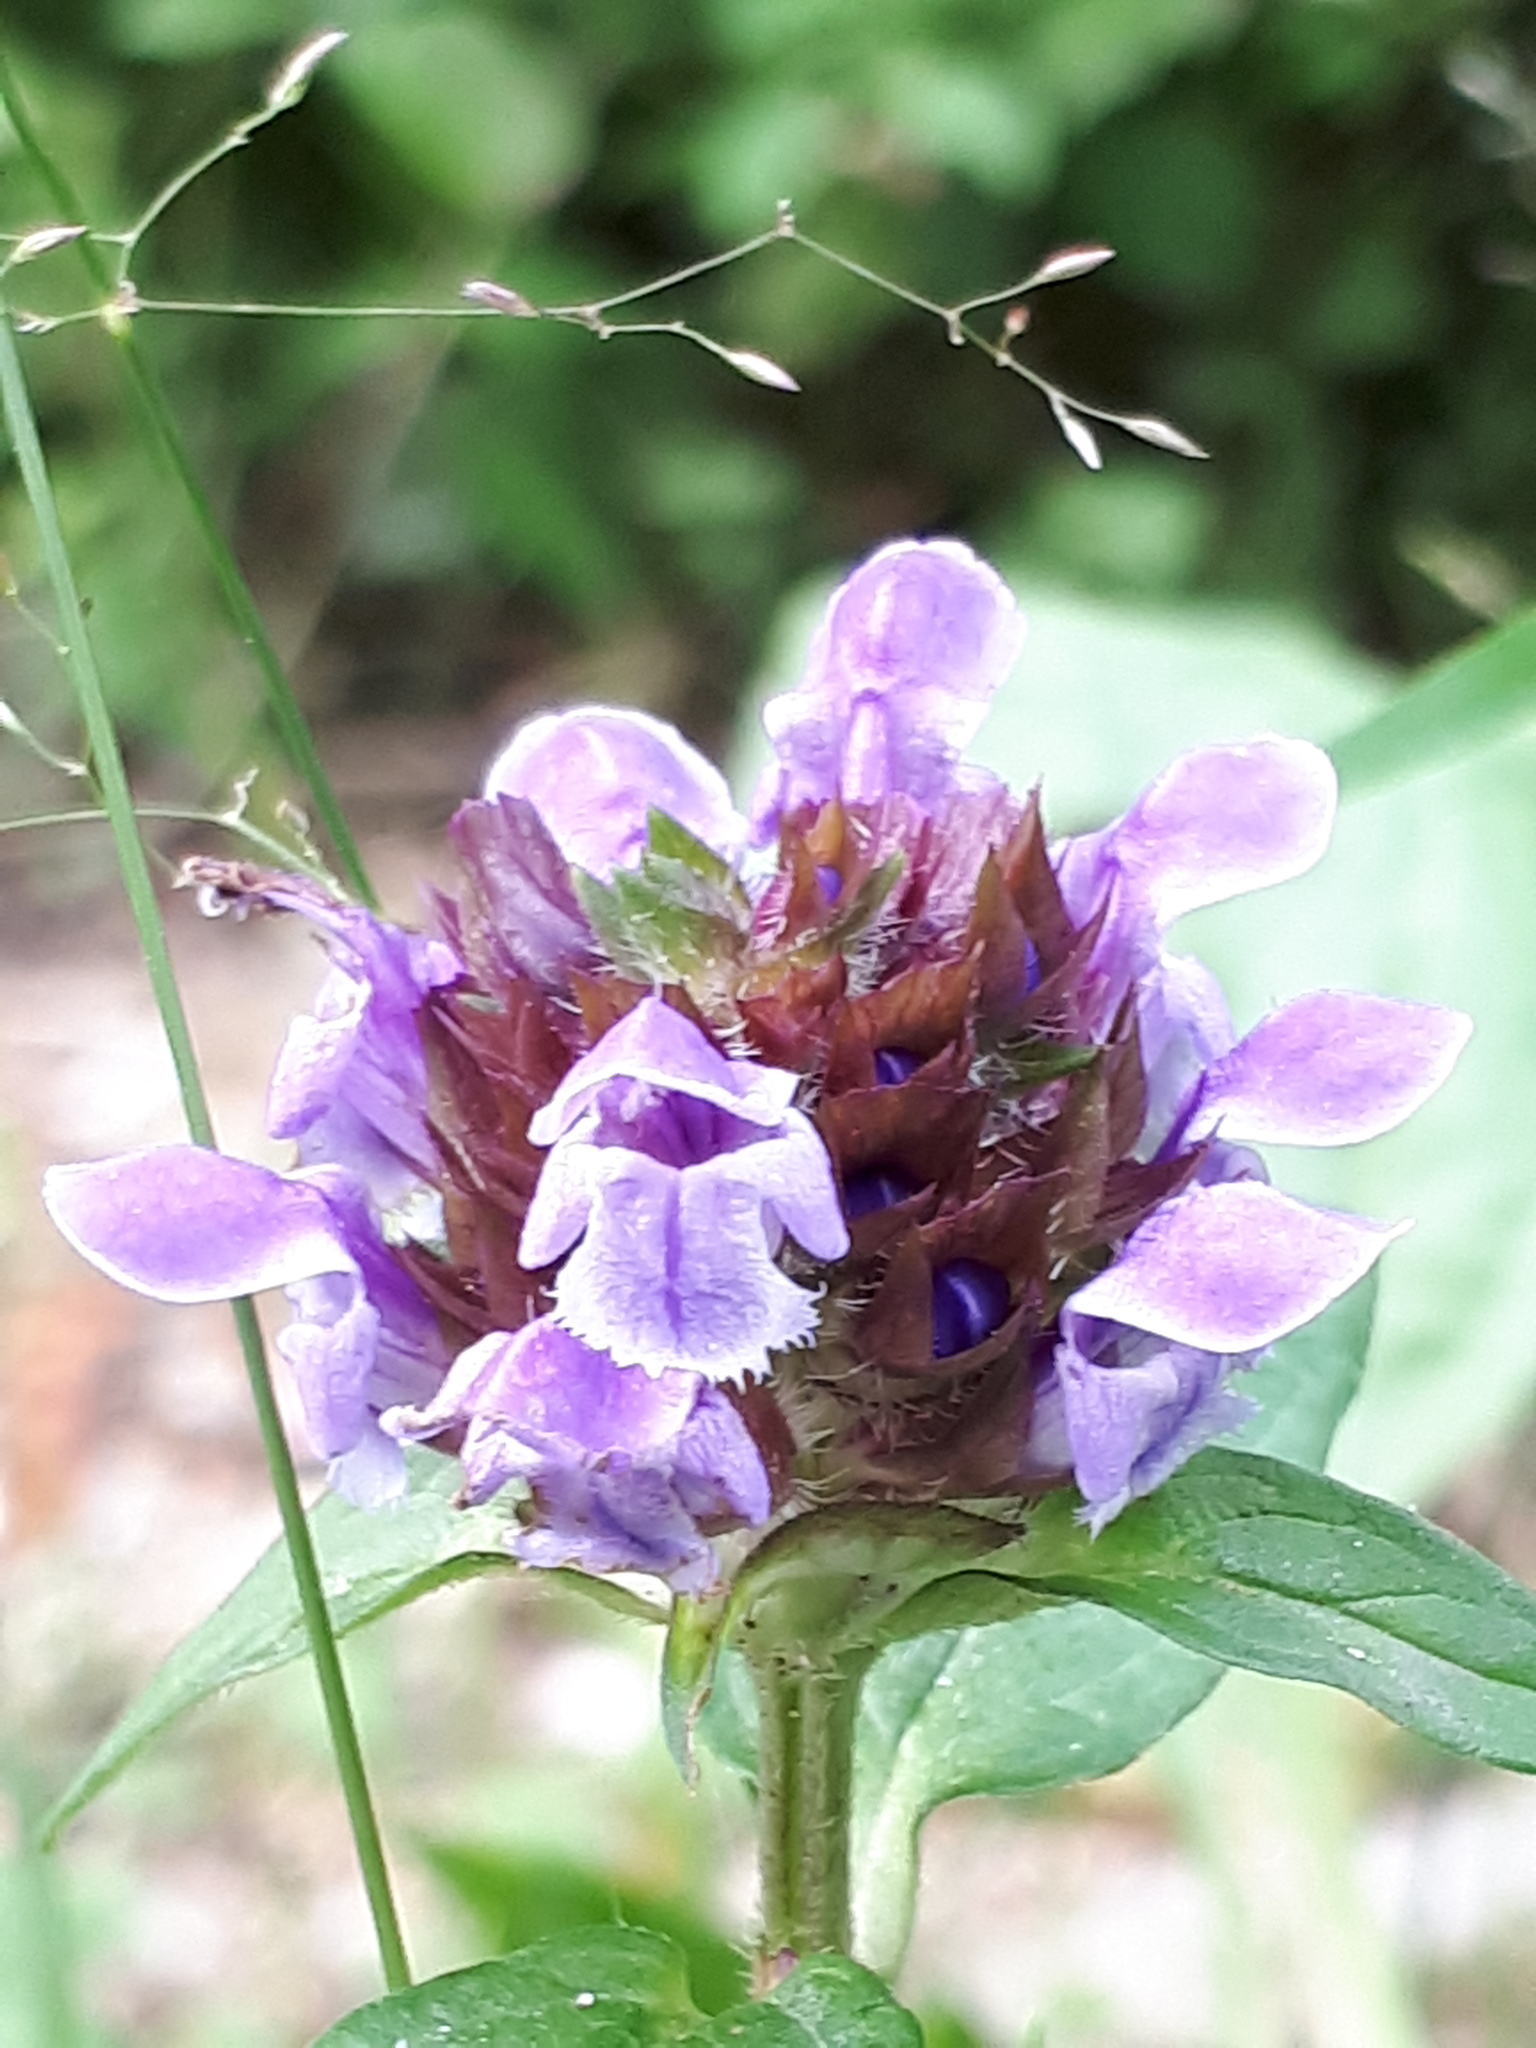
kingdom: Plantae
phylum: Tracheophyta
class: Magnoliopsida
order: Lamiales
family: Lamiaceae
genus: Prunella
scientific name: Prunella vulgaris
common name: Heal-all
